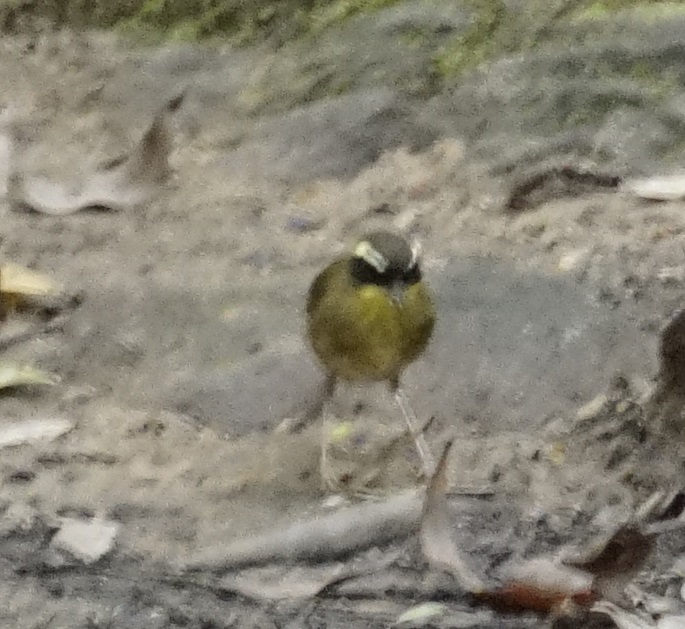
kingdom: Animalia
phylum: Chordata
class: Aves
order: Passeriformes
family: Acanthizidae
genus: Sericornis
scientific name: Sericornis citreogularis
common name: Yellow-throated scrubwren
